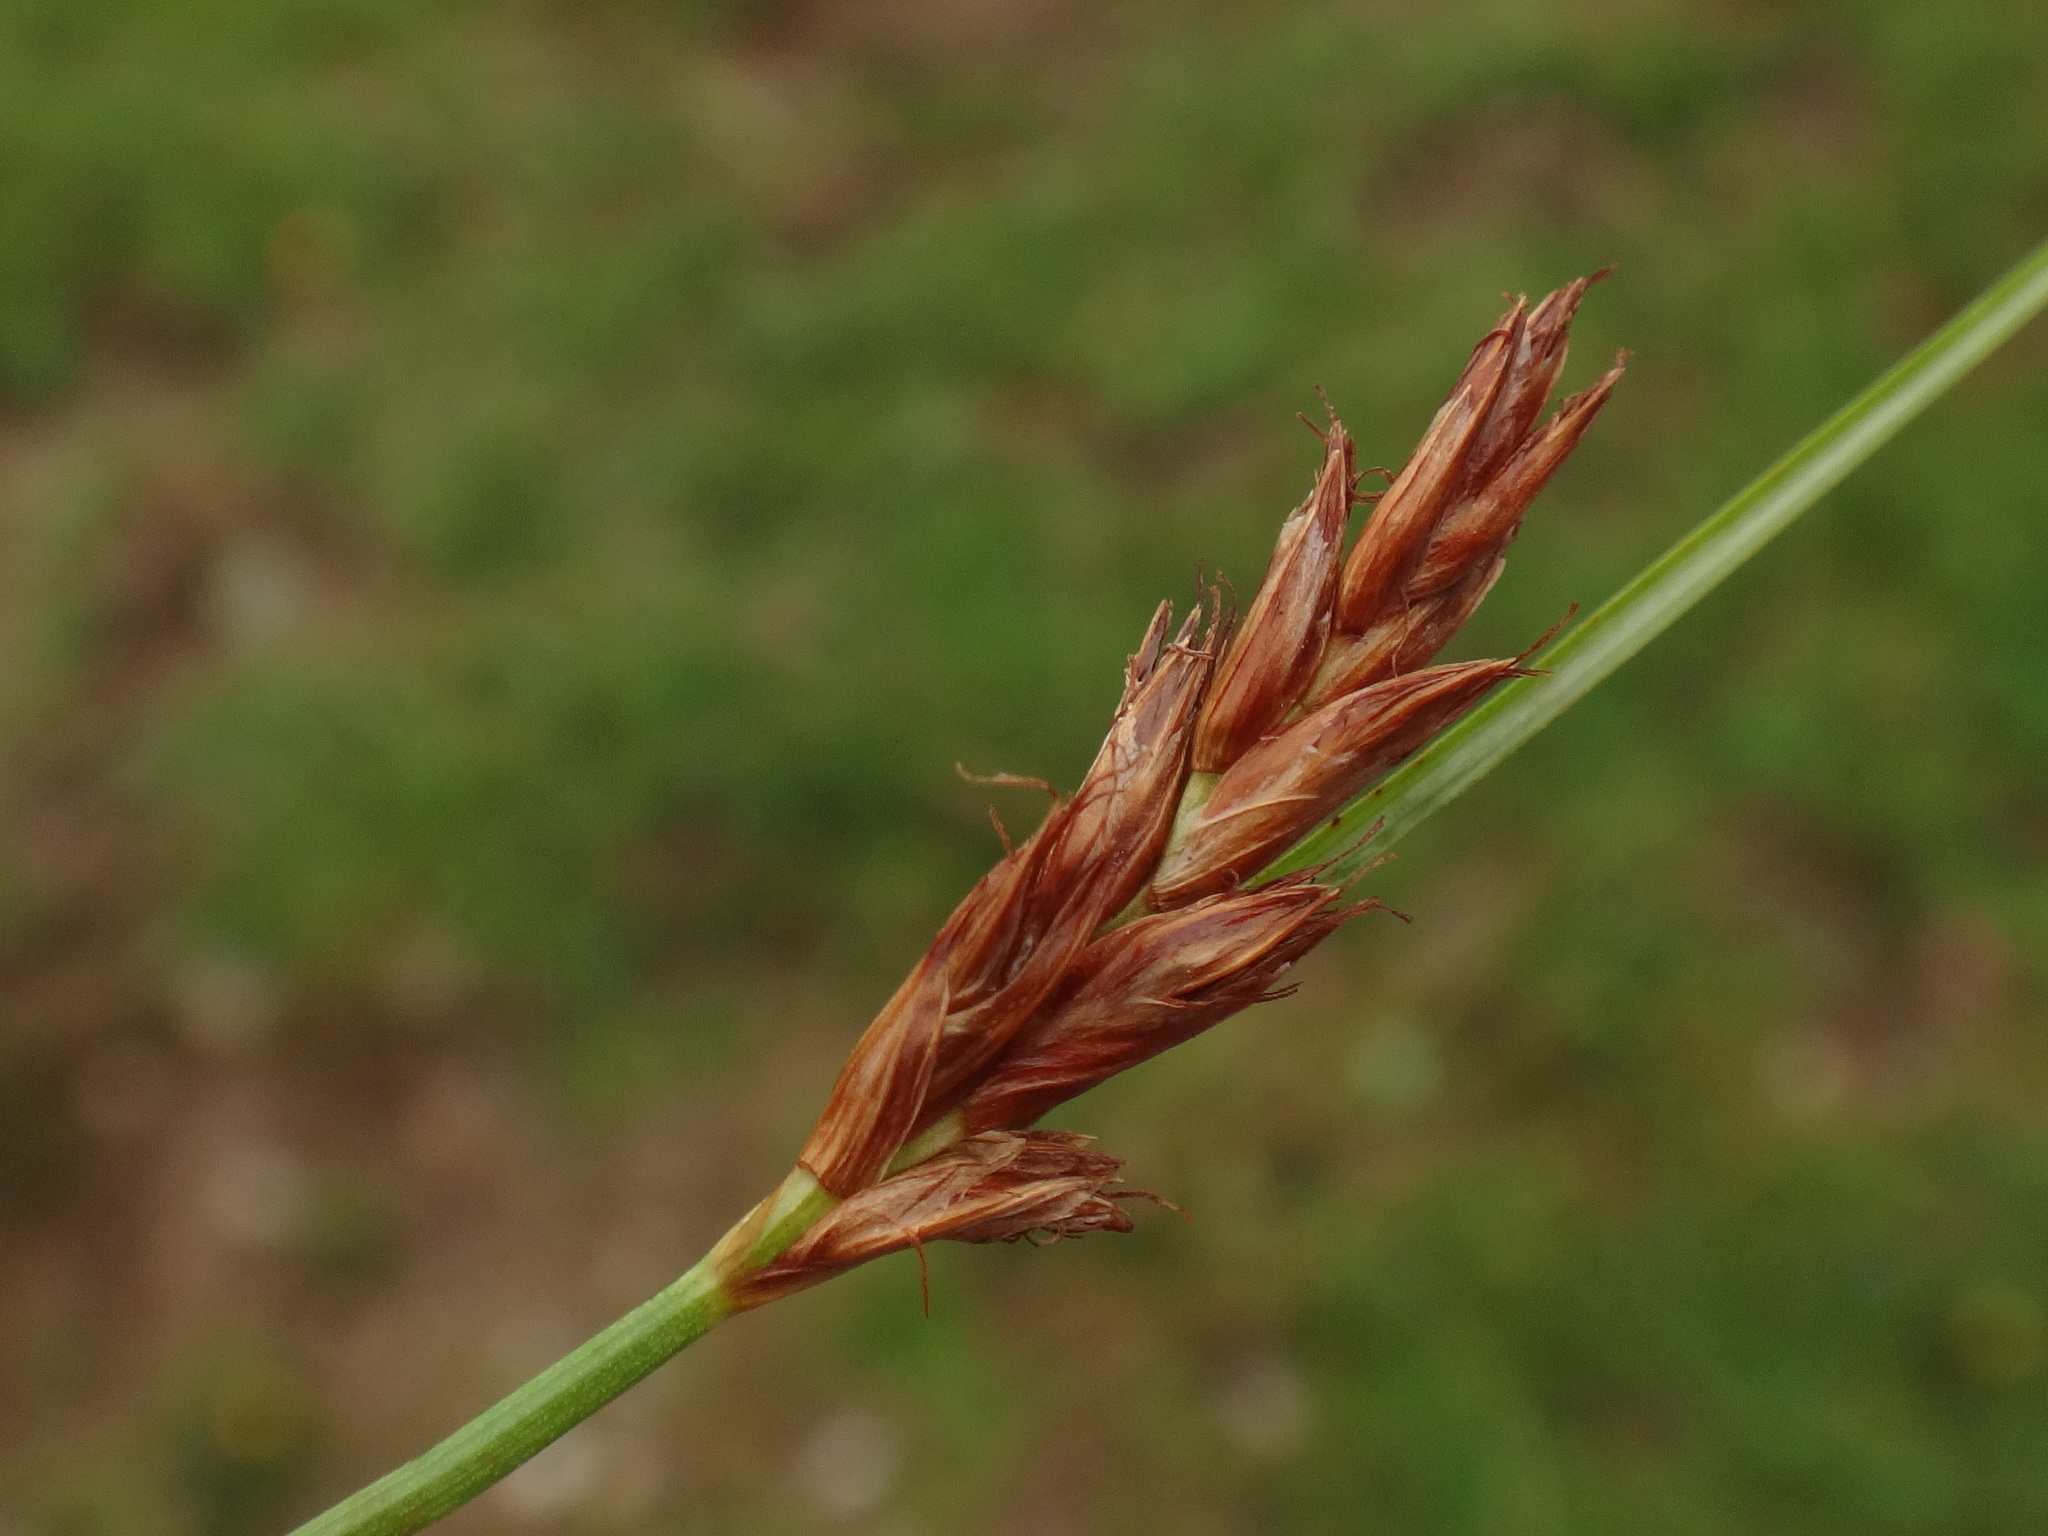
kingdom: Plantae
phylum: Tracheophyta
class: Liliopsida
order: Poales
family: Cyperaceae
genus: Blysmus
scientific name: Blysmus compressus
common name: Flat-sedge
